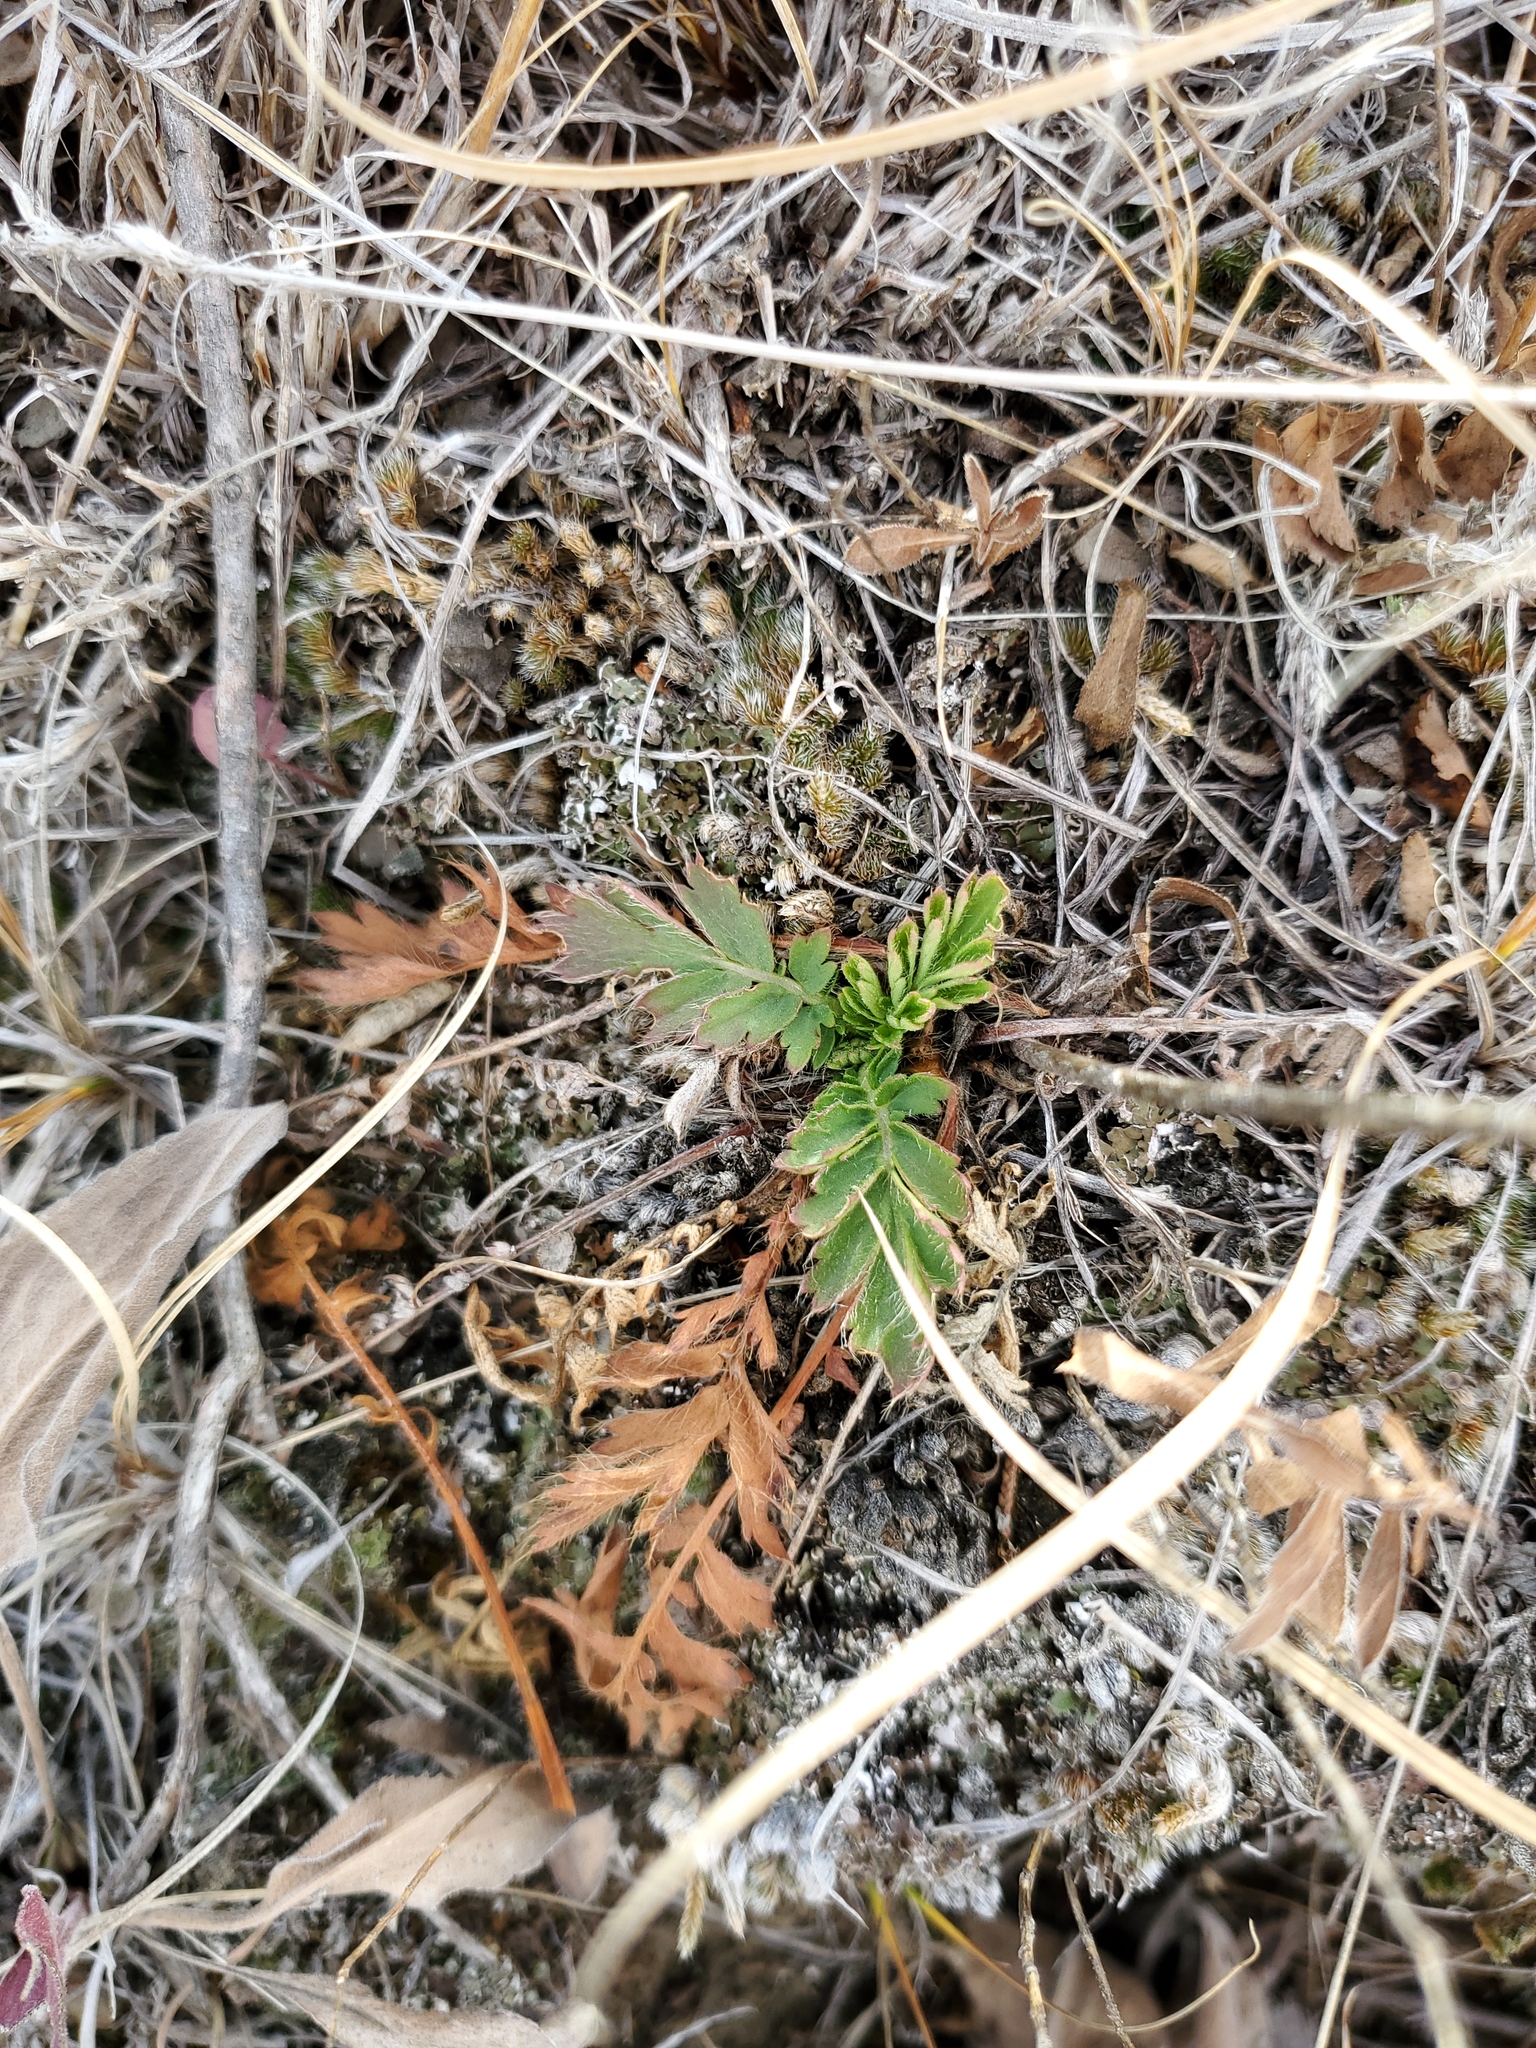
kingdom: Plantae
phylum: Tracheophyta
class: Magnoliopsida
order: Rosales
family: Rosaceae
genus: Geum
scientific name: Geum triflorum
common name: Old man's whiskers
